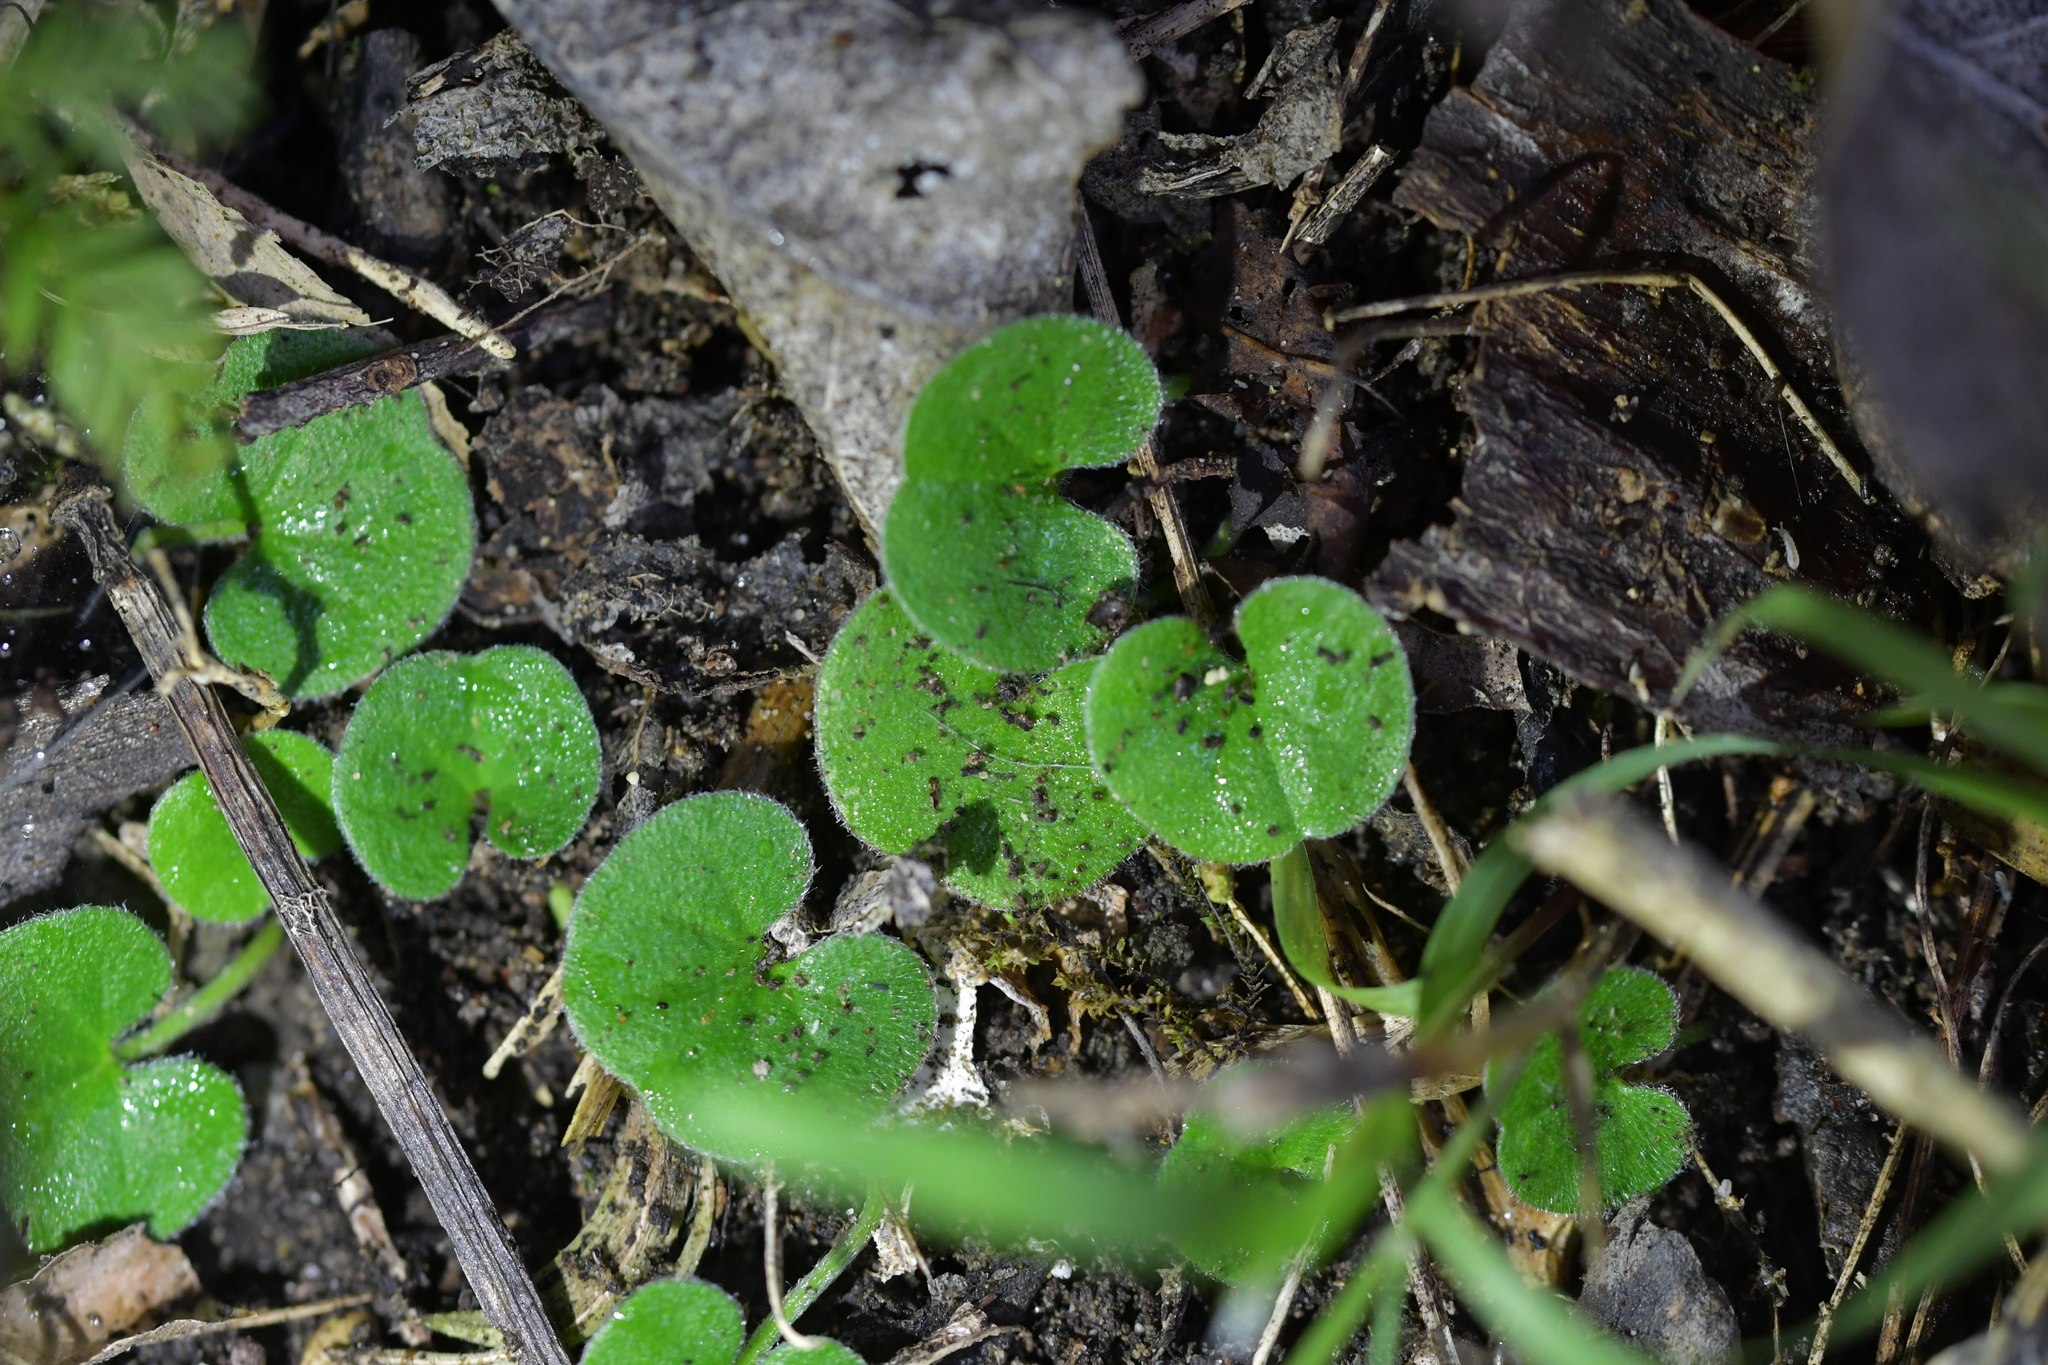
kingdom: Plantae
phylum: Tracheophyta
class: Magnoliopsida
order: Solanales
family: Convolvulaceae
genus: Dichondra
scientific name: Dichondra repens
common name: Kidneyweed
